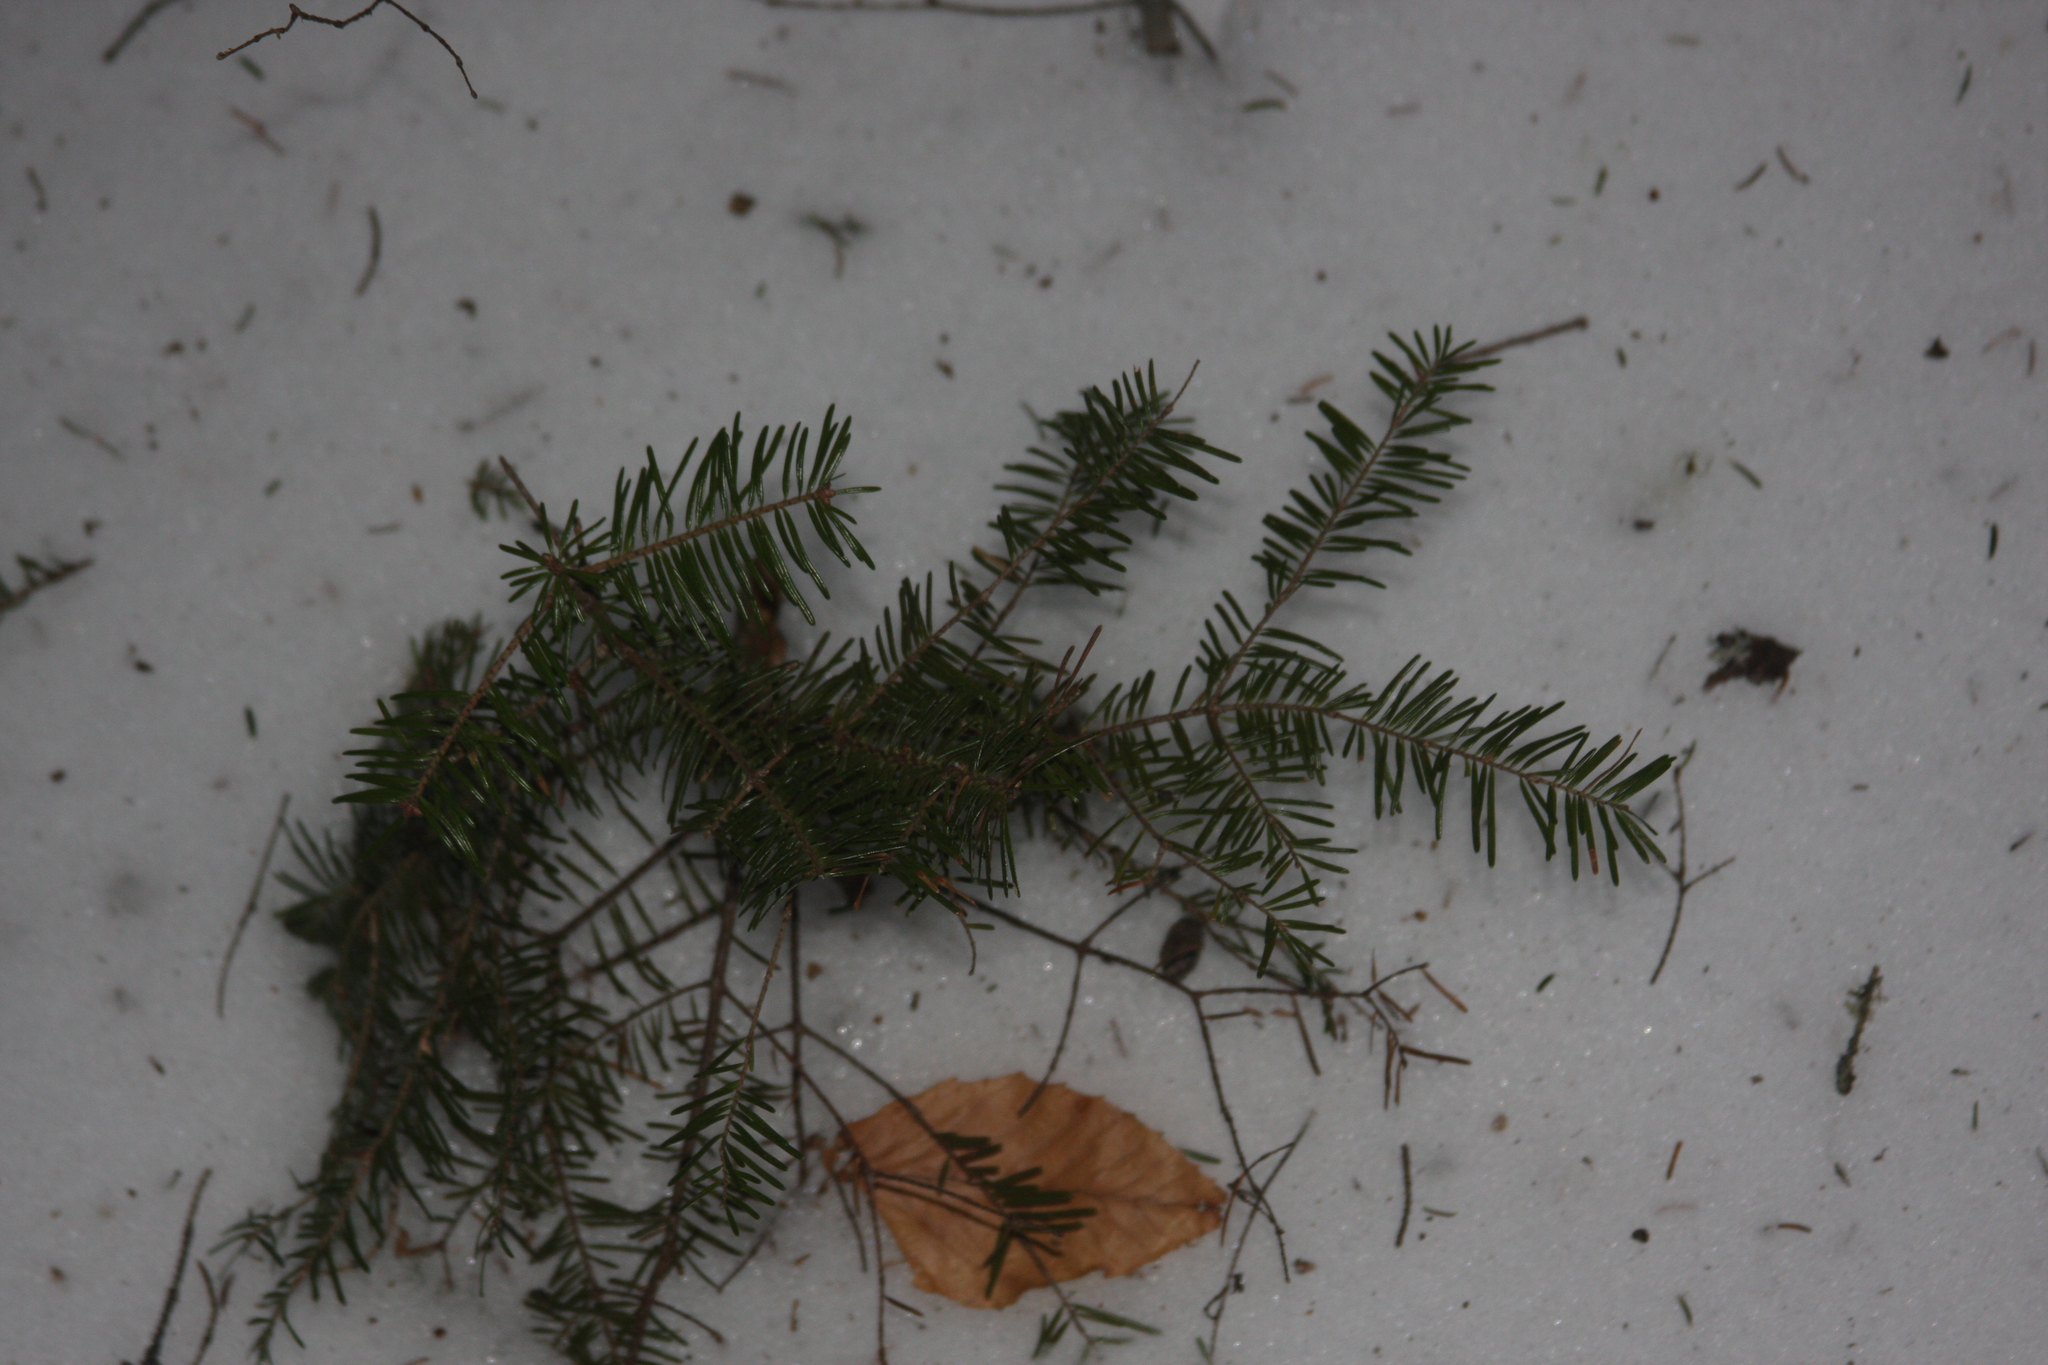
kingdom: Plantae
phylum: Tracheophyta
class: Pinopsida
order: Pinales
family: Pinaceae
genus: Abies
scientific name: Abies balsamea
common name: Balsam fir
